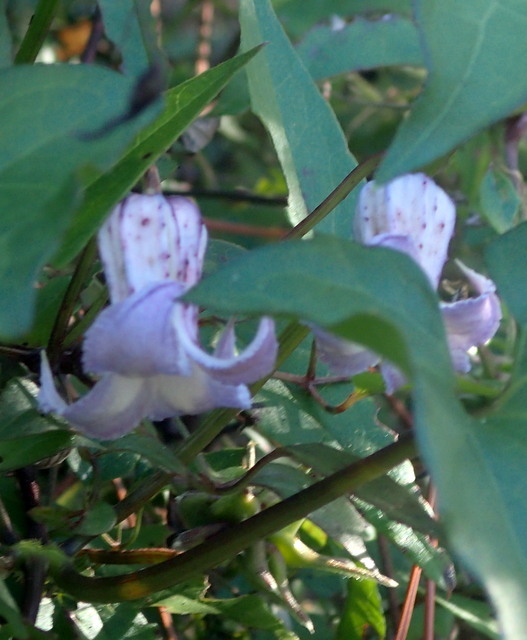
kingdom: Plantae
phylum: Tracheophyta
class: Magnoliopsida
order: Ranunculales
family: Ranunculaceae
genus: Clematis
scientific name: Clematis crispa
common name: Curly clematis
